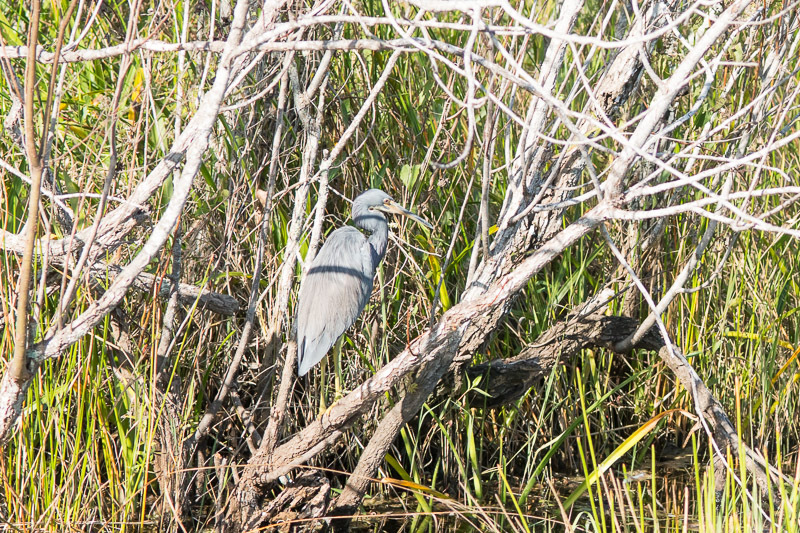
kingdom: Animalia
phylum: Chordata
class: Aves
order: Pelecaniformes
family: Ardeidae
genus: Egretta
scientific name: Egretta tricolor
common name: Tricolored heron
